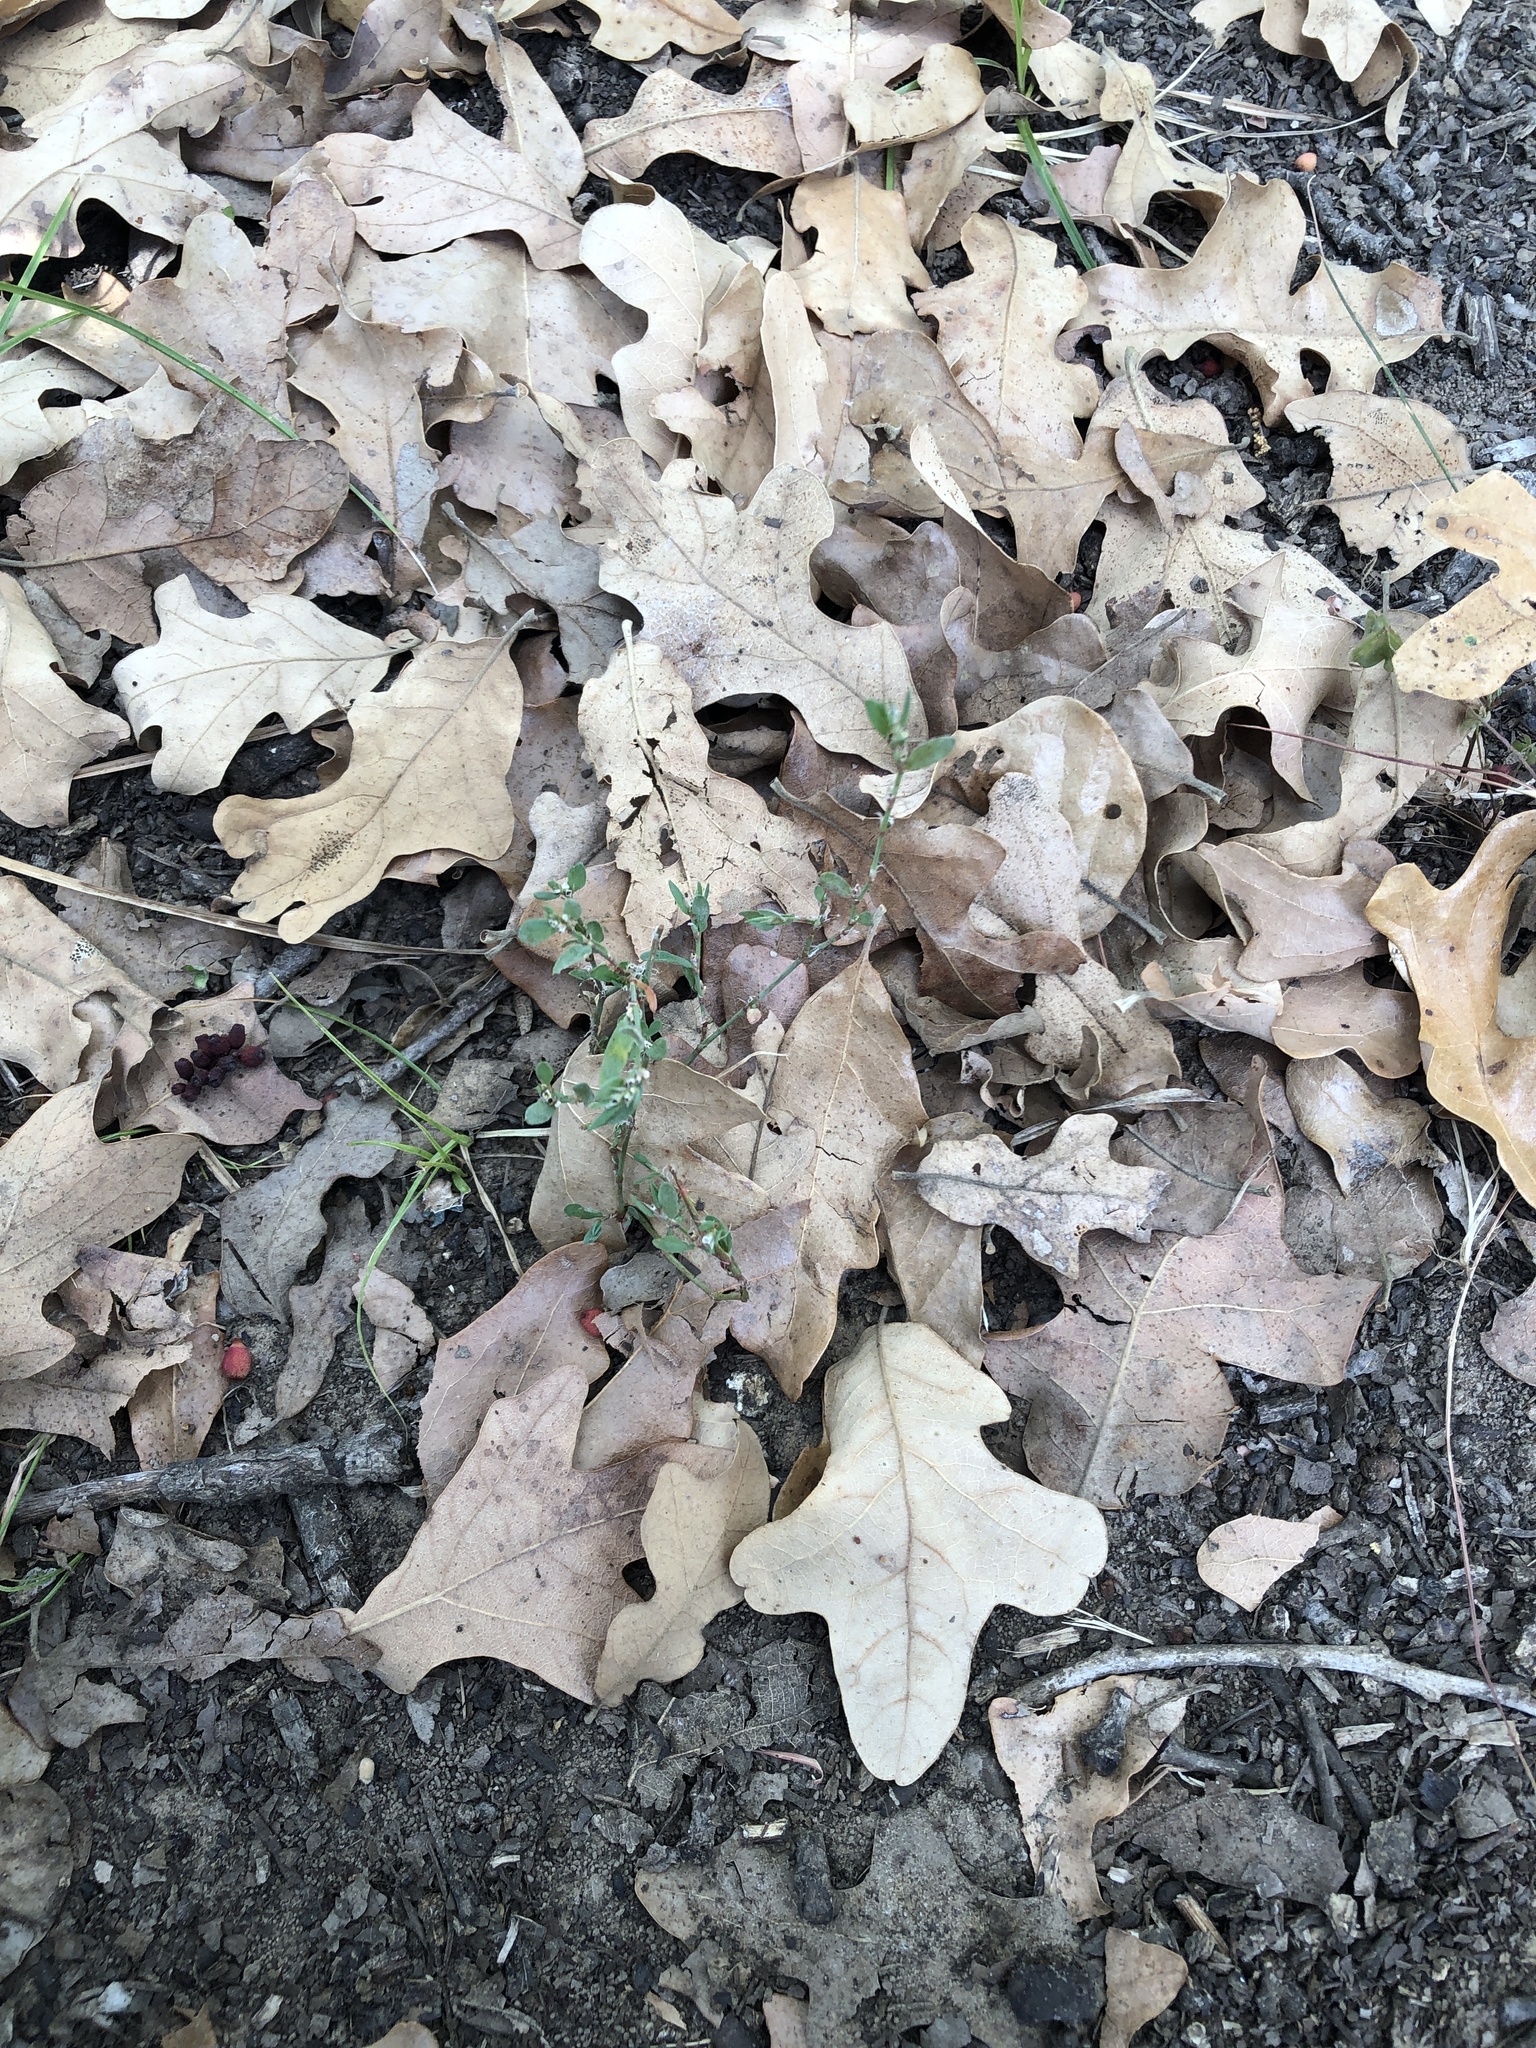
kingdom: Plantae
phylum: Tracheophyta
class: Magnoliopsida
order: Caryophyllales
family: Polygonaceae
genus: Polygonum
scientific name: Polygonum aviculare
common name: Prostrate knotweed
